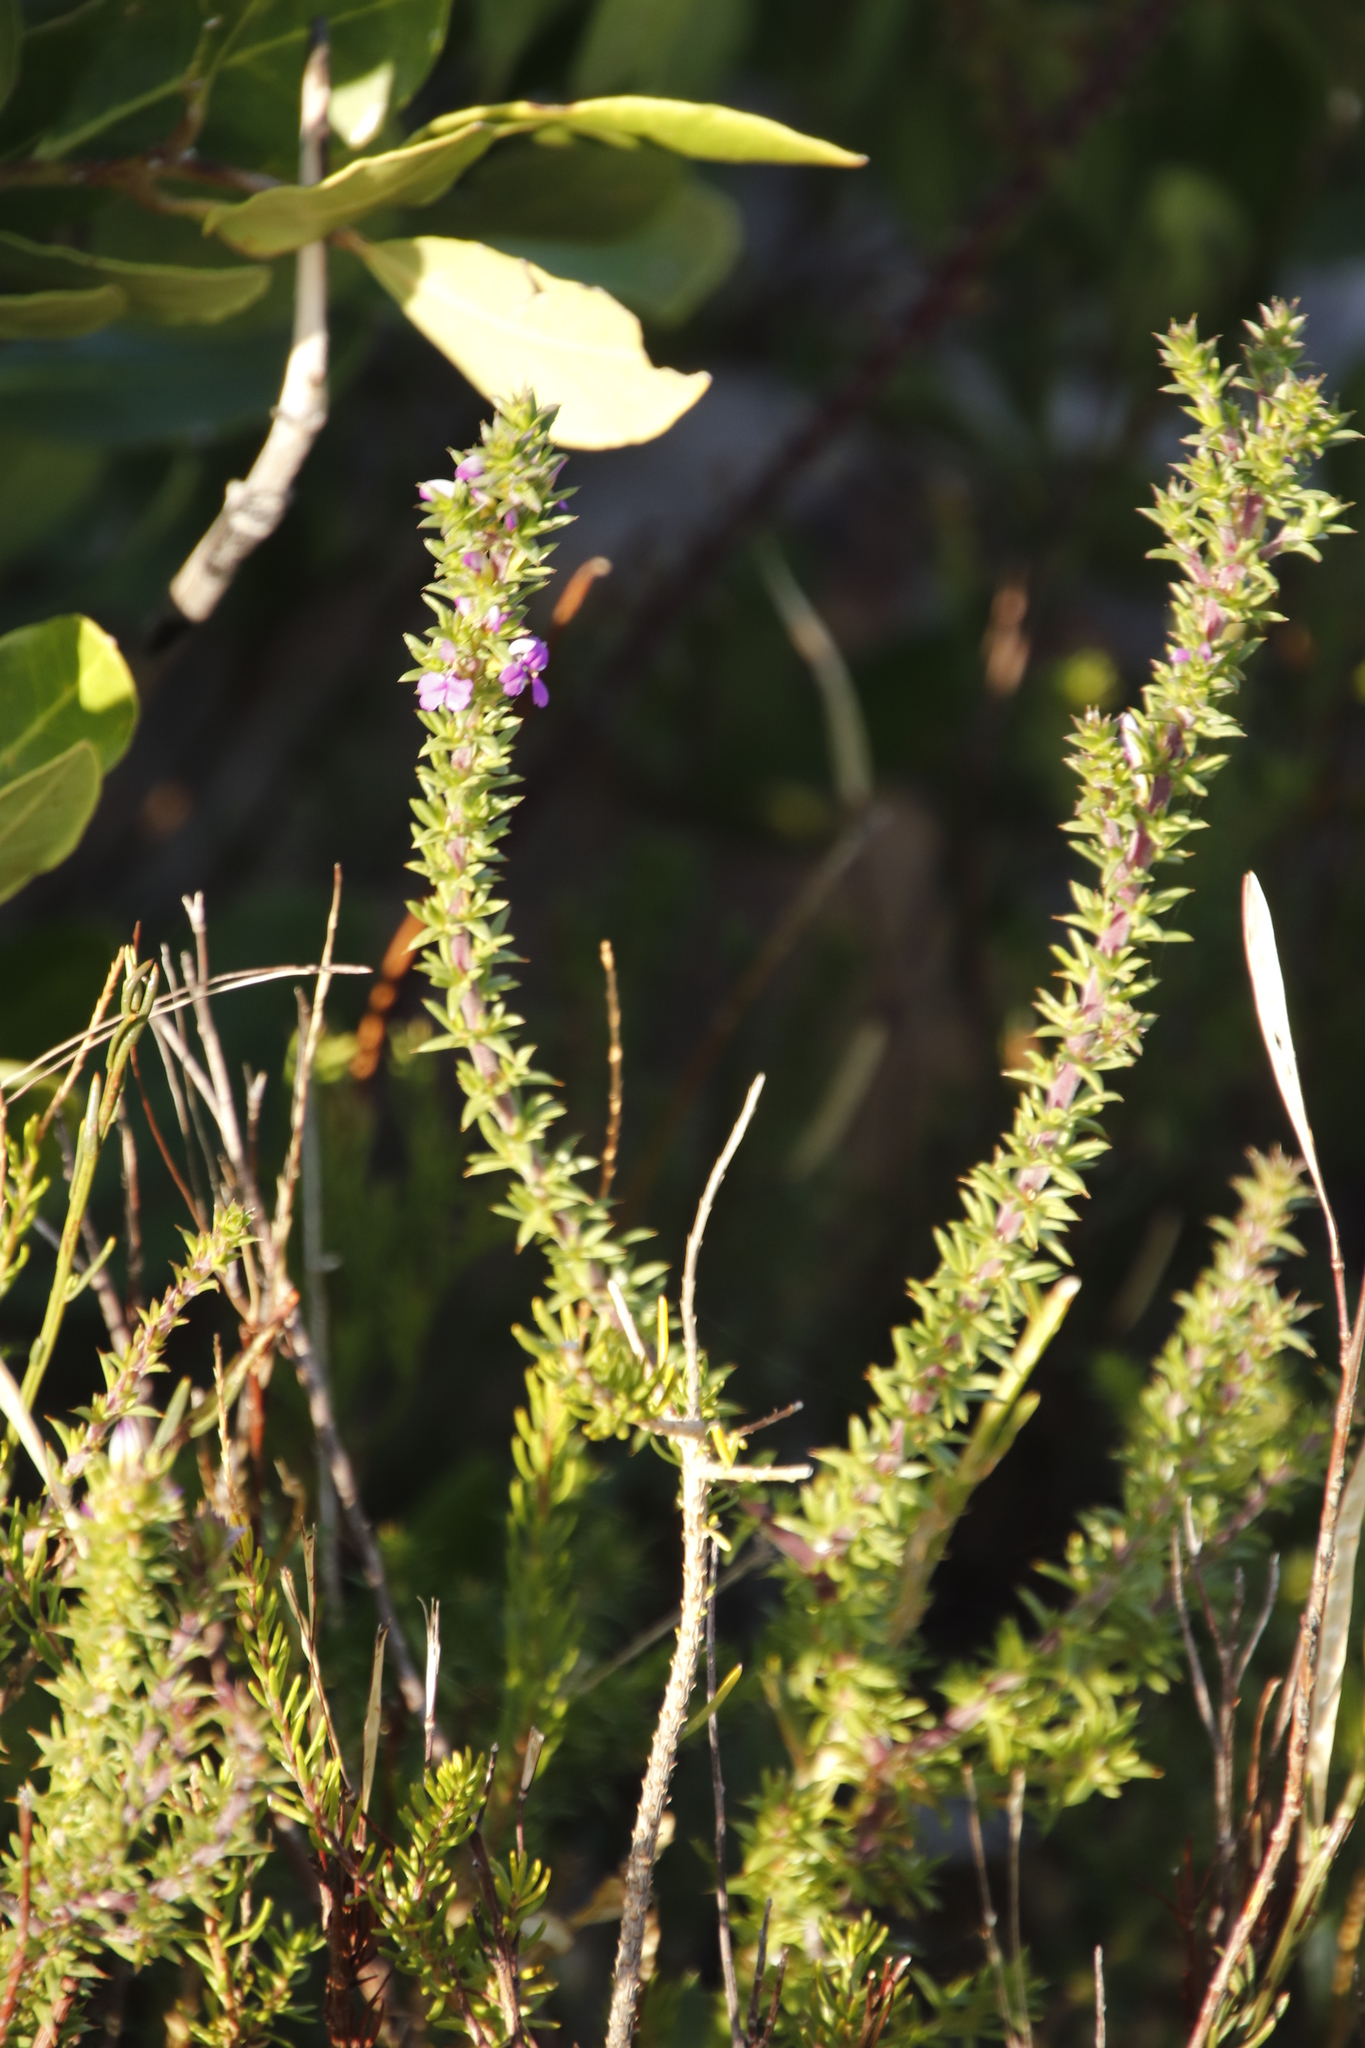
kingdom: Plantae
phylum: Tracheophyta
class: Magnoliopsida
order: Fabales
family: Polygalaceae
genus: Muraltia
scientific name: Muraltia heisteria
